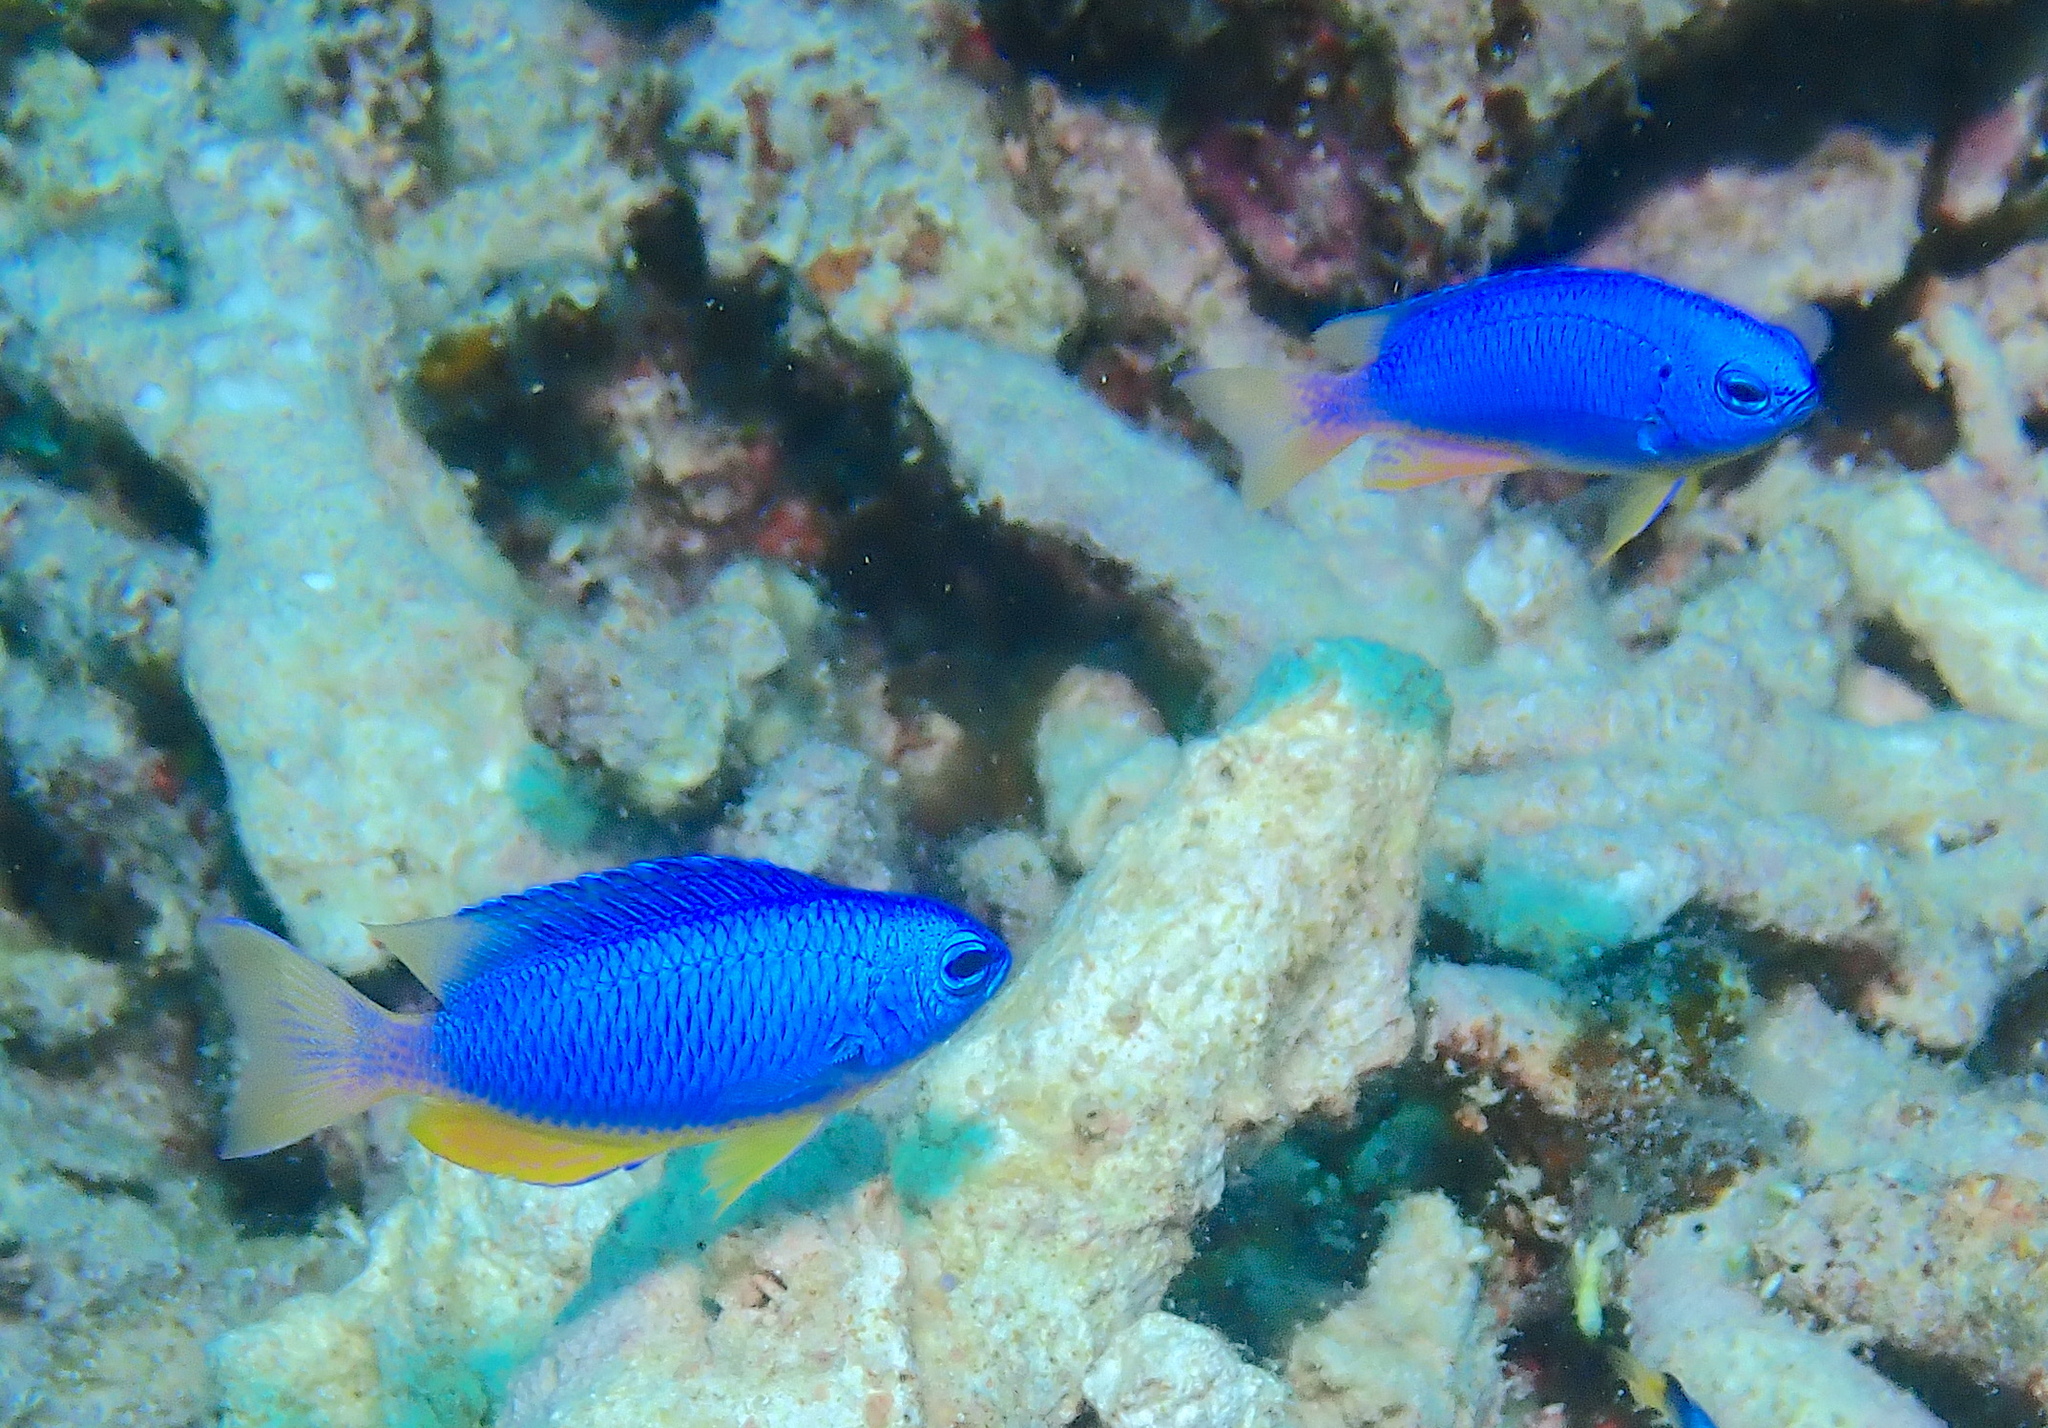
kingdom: Animalia
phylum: Chordata
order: Perciformes
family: Pomacentridae
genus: Pomacentrus
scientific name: Pomacentrus coelestis
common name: Neon damsel
